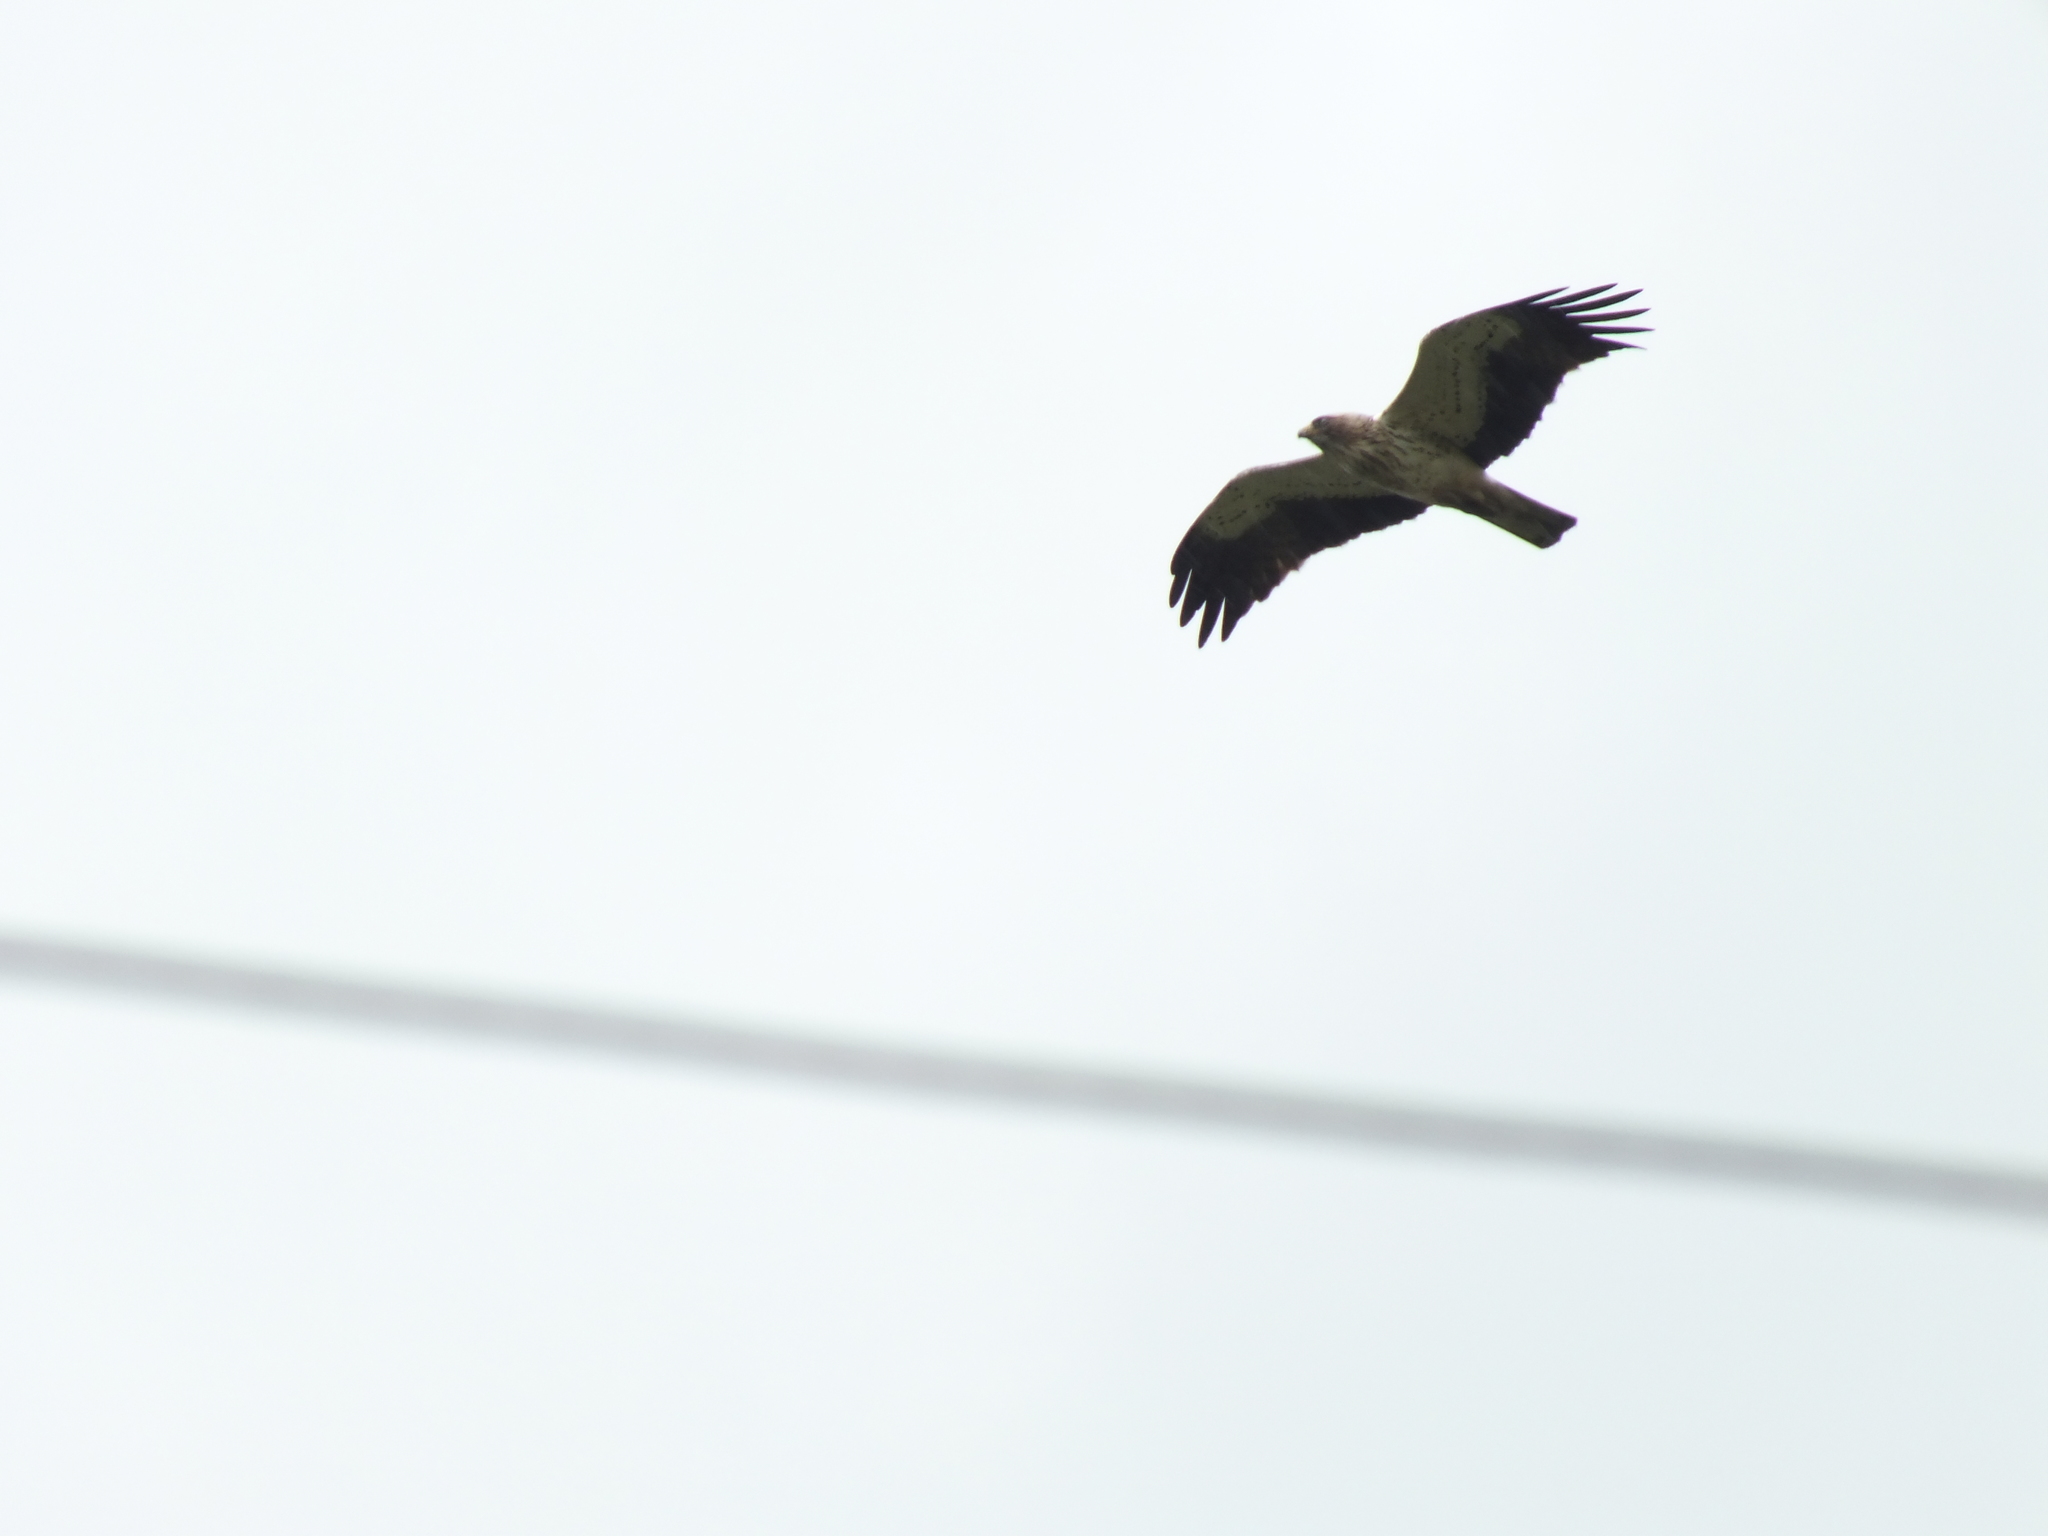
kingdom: Animalia
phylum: Chordata
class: Aves
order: Accipitriformes
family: Accipitridae
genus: Hieraaetus
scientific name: Hieraaetus pennatus
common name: Booted eagle
